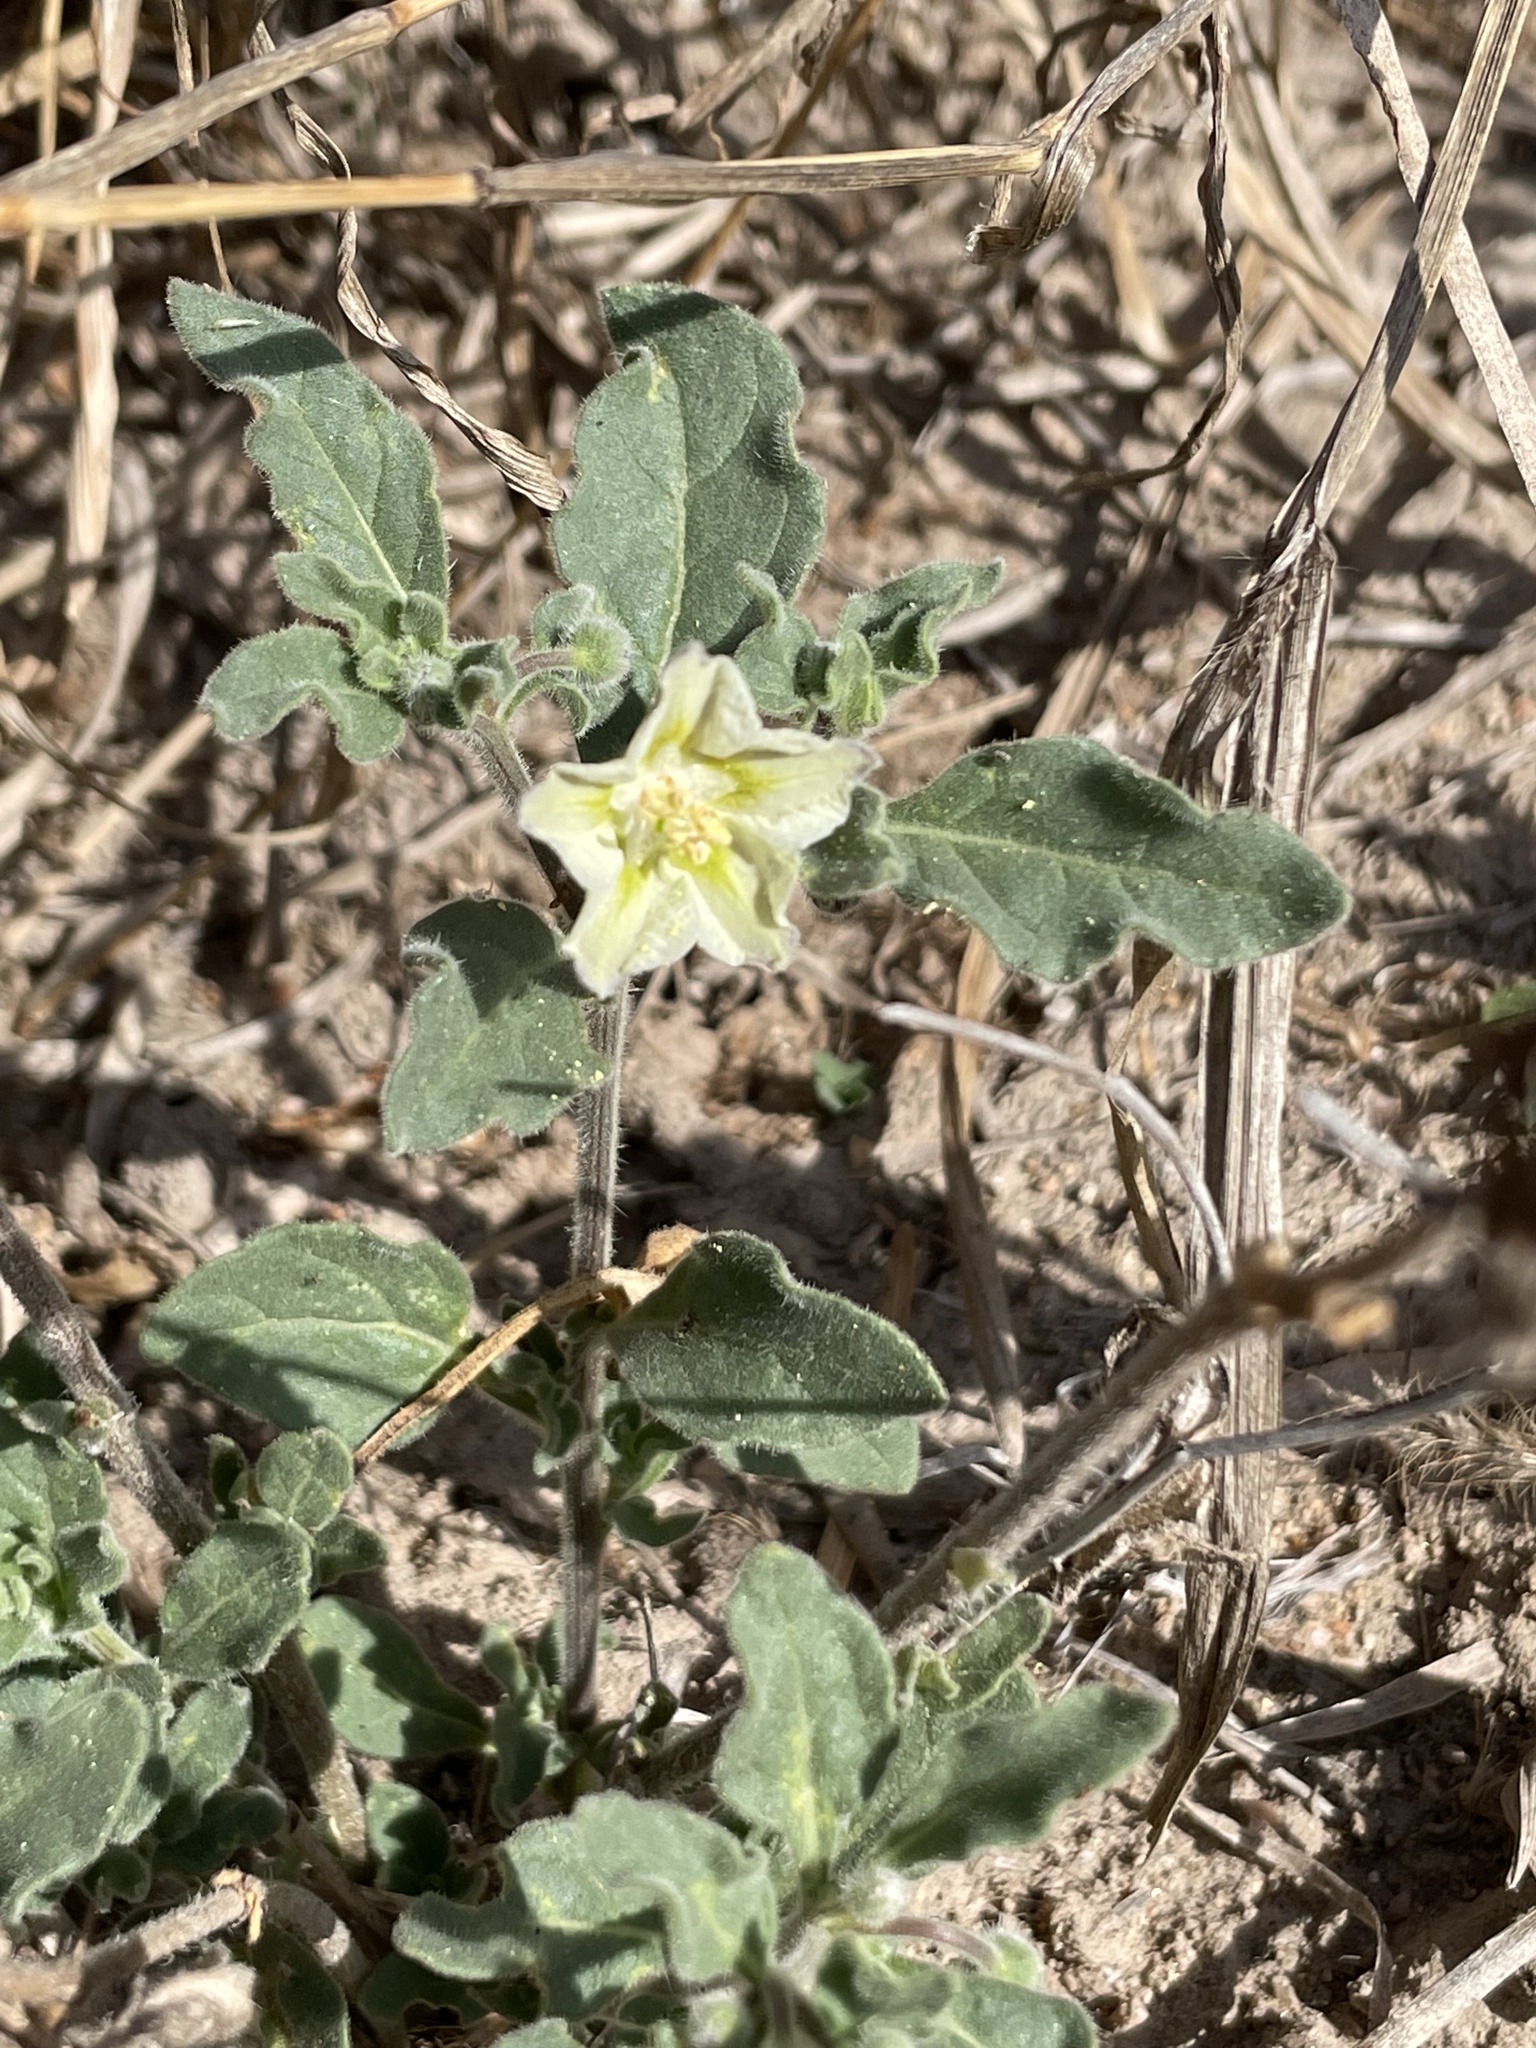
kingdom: Plantae
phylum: Tracheophyta
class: Magnoliopsida
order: Solanales
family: Solanaceae
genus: Chamaesaracha
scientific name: Chamaesaracha sordida
